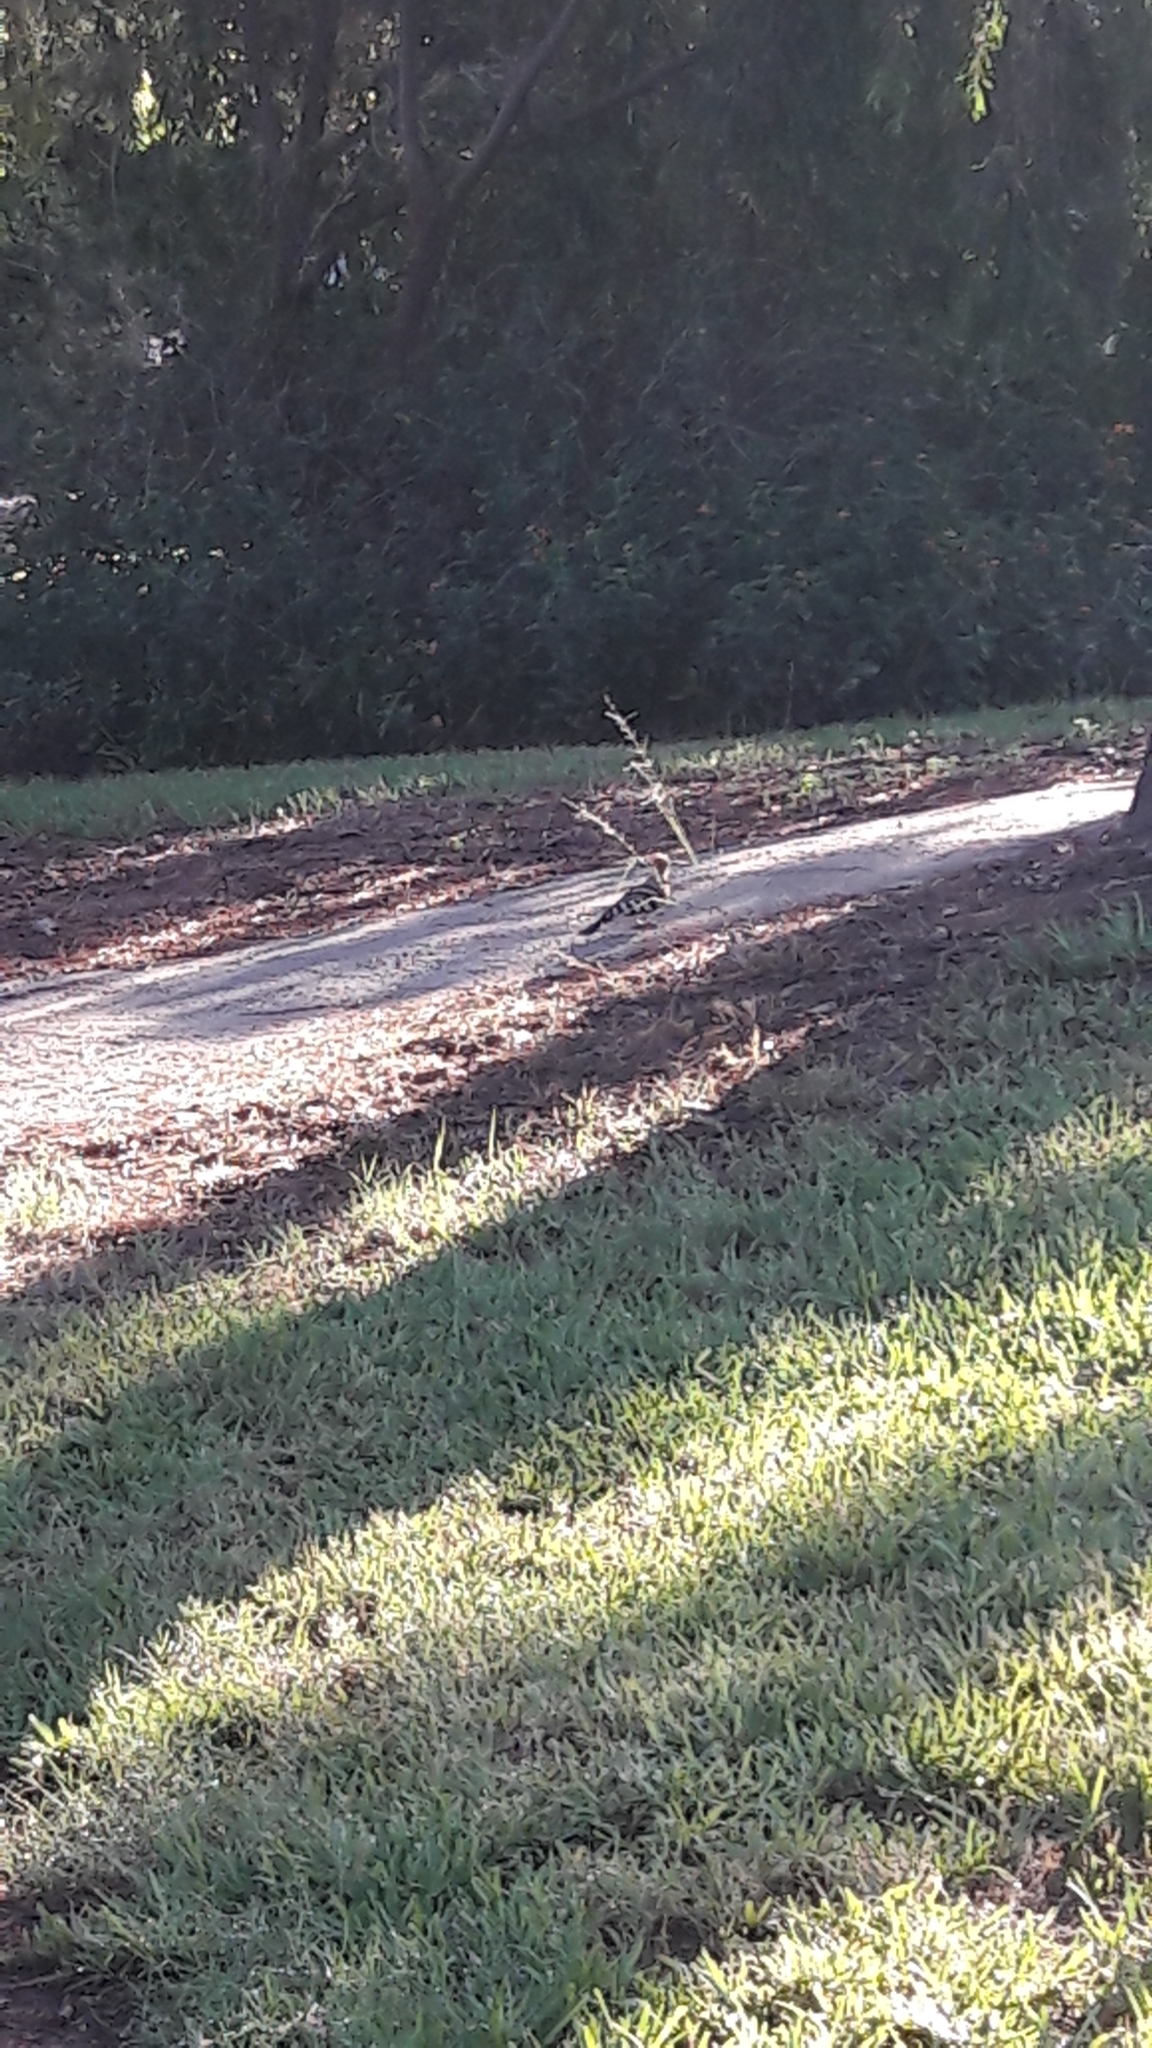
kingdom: Animalia
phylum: Chordata
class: Aves
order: Bucerotiformes
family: Upupidae
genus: Upupa
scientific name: Upupa epops
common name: Eurasian hoopoe
